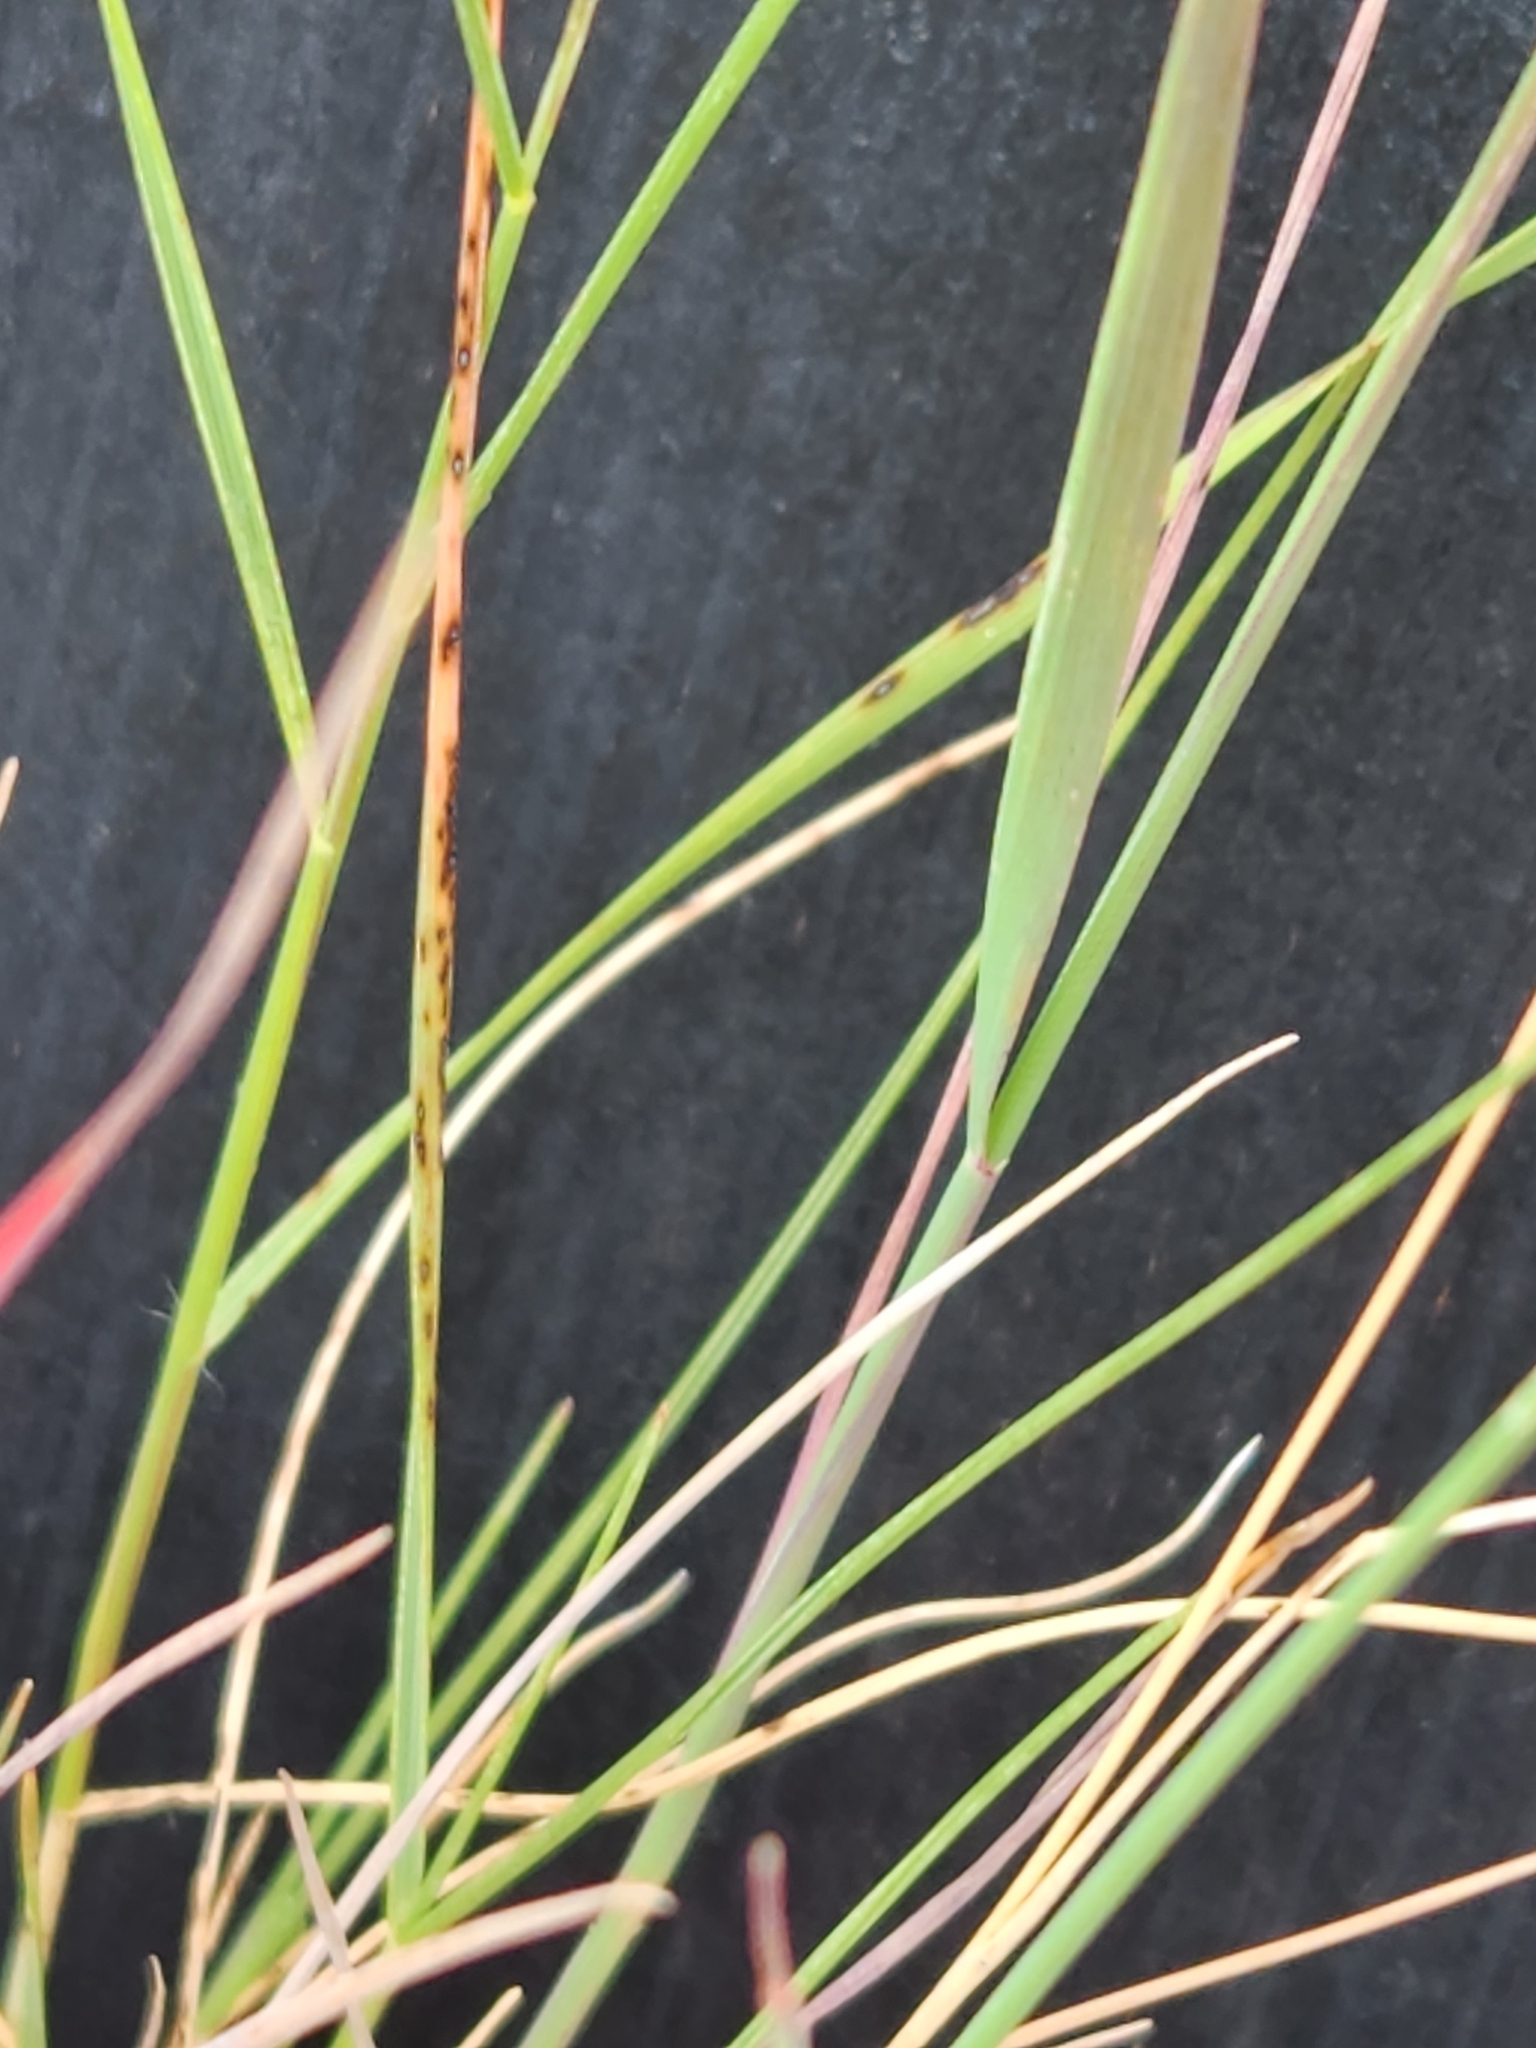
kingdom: Plantae
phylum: Tracheophyta
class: Liliopsida
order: Poales
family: Poaceae
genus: Tridentopsis
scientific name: Tridentopsis mutica
